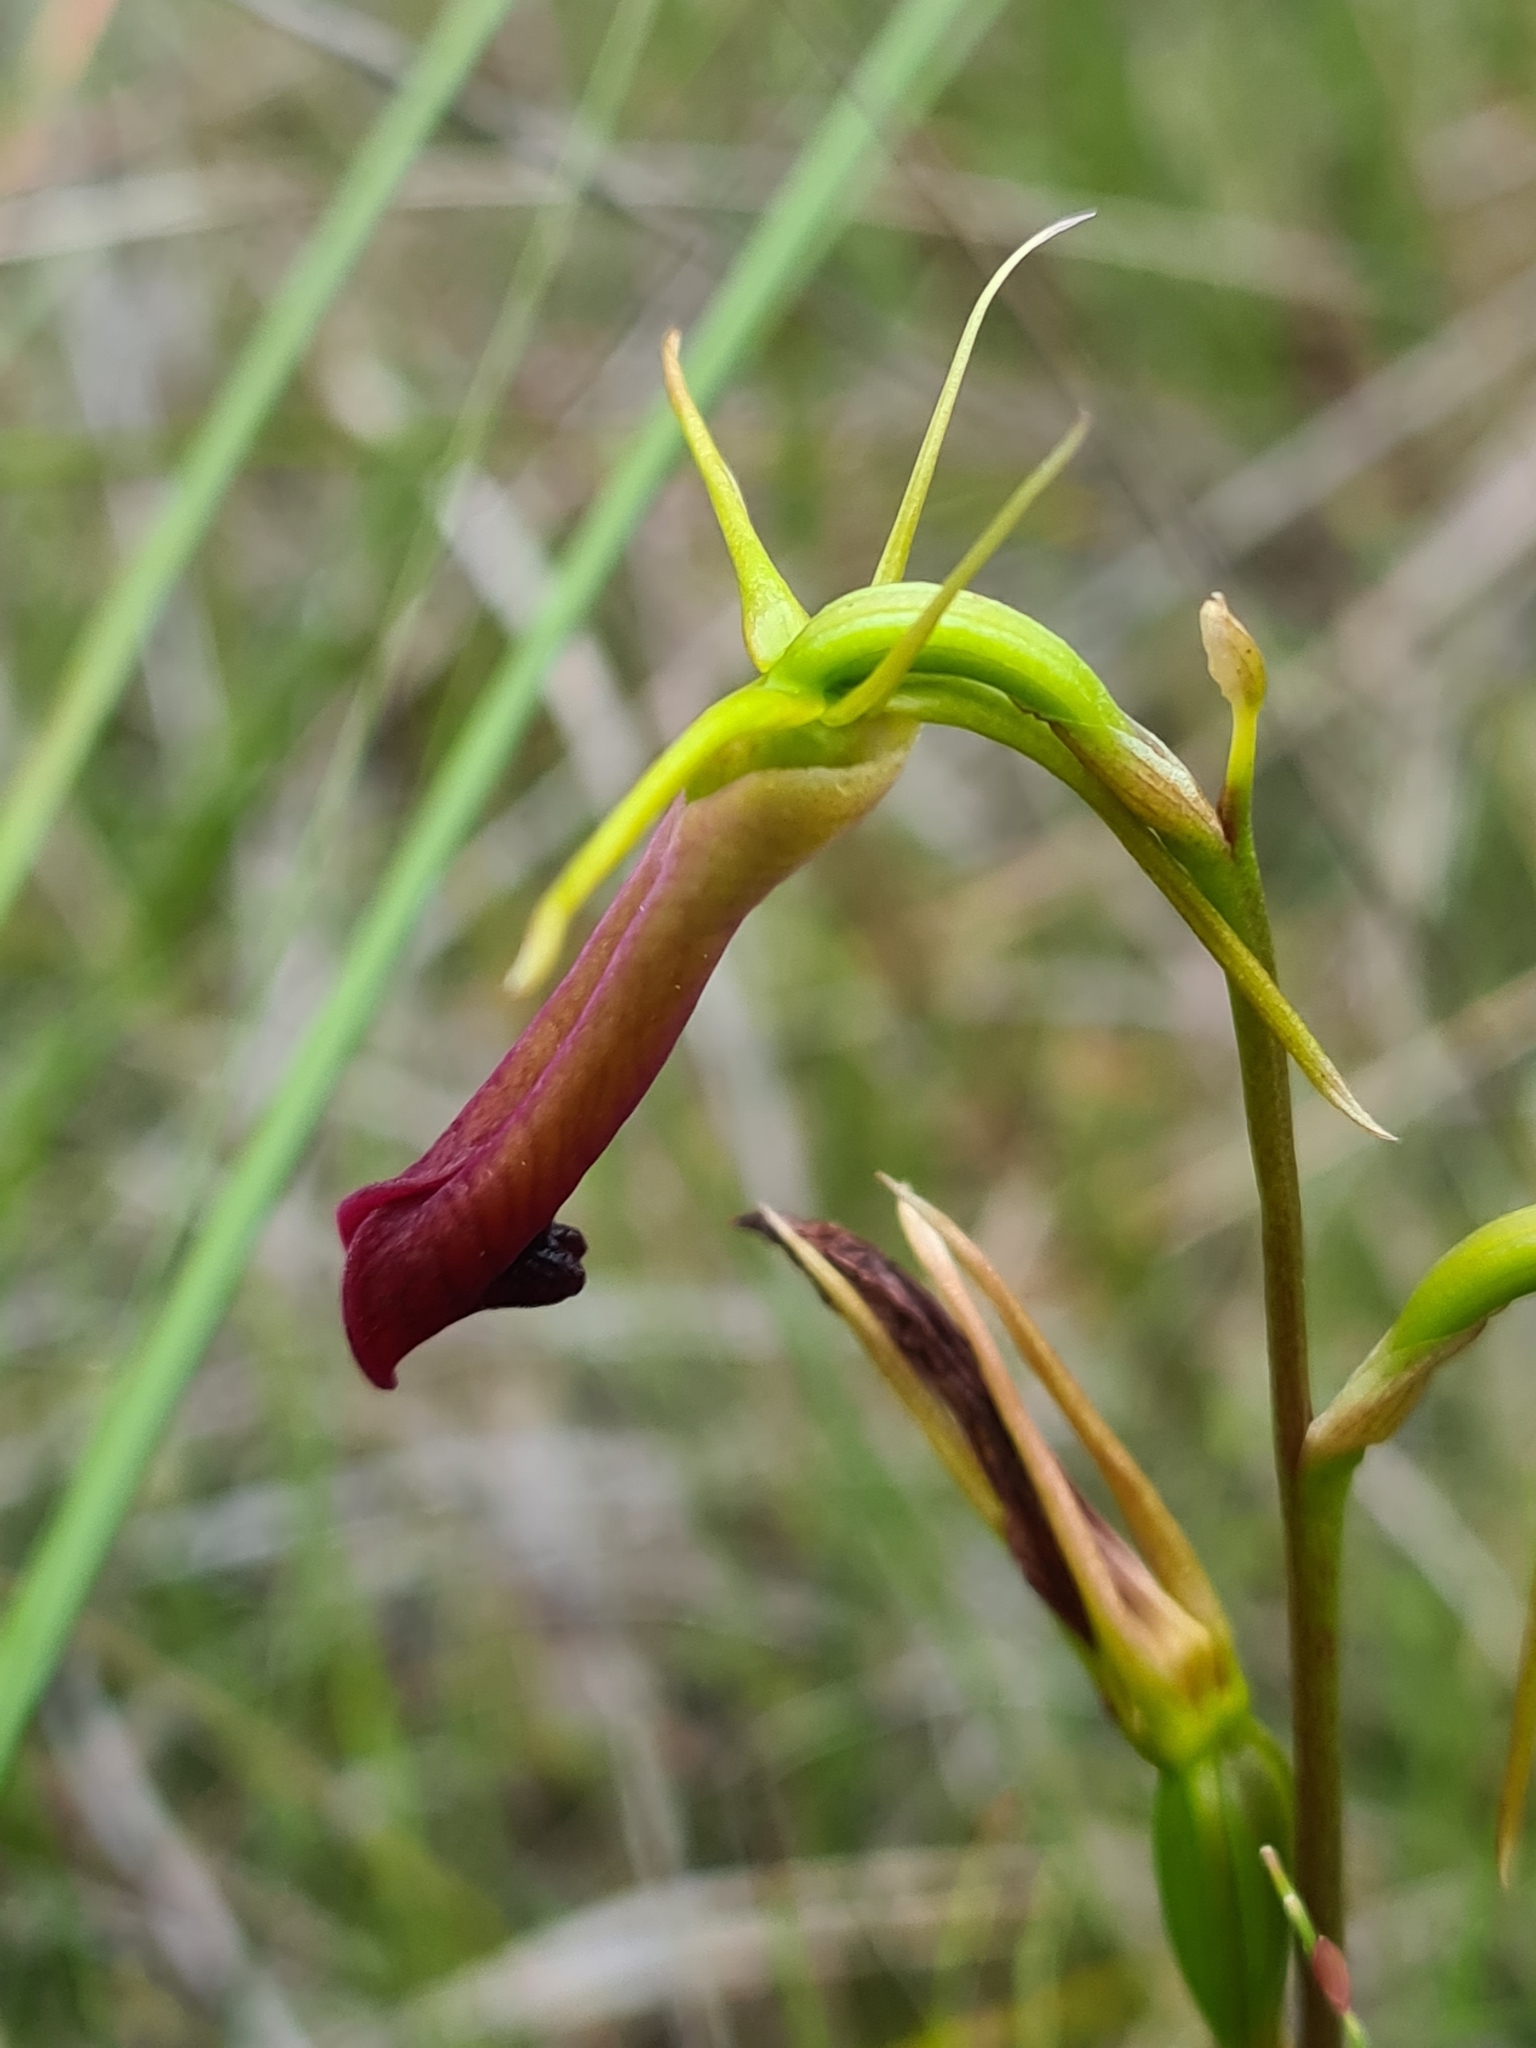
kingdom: Plantae
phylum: Tracheophyta
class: Liliopsida
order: Asparagales
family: Orchidaceae
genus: Cryptostylis
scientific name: Cryptostylis subulata
